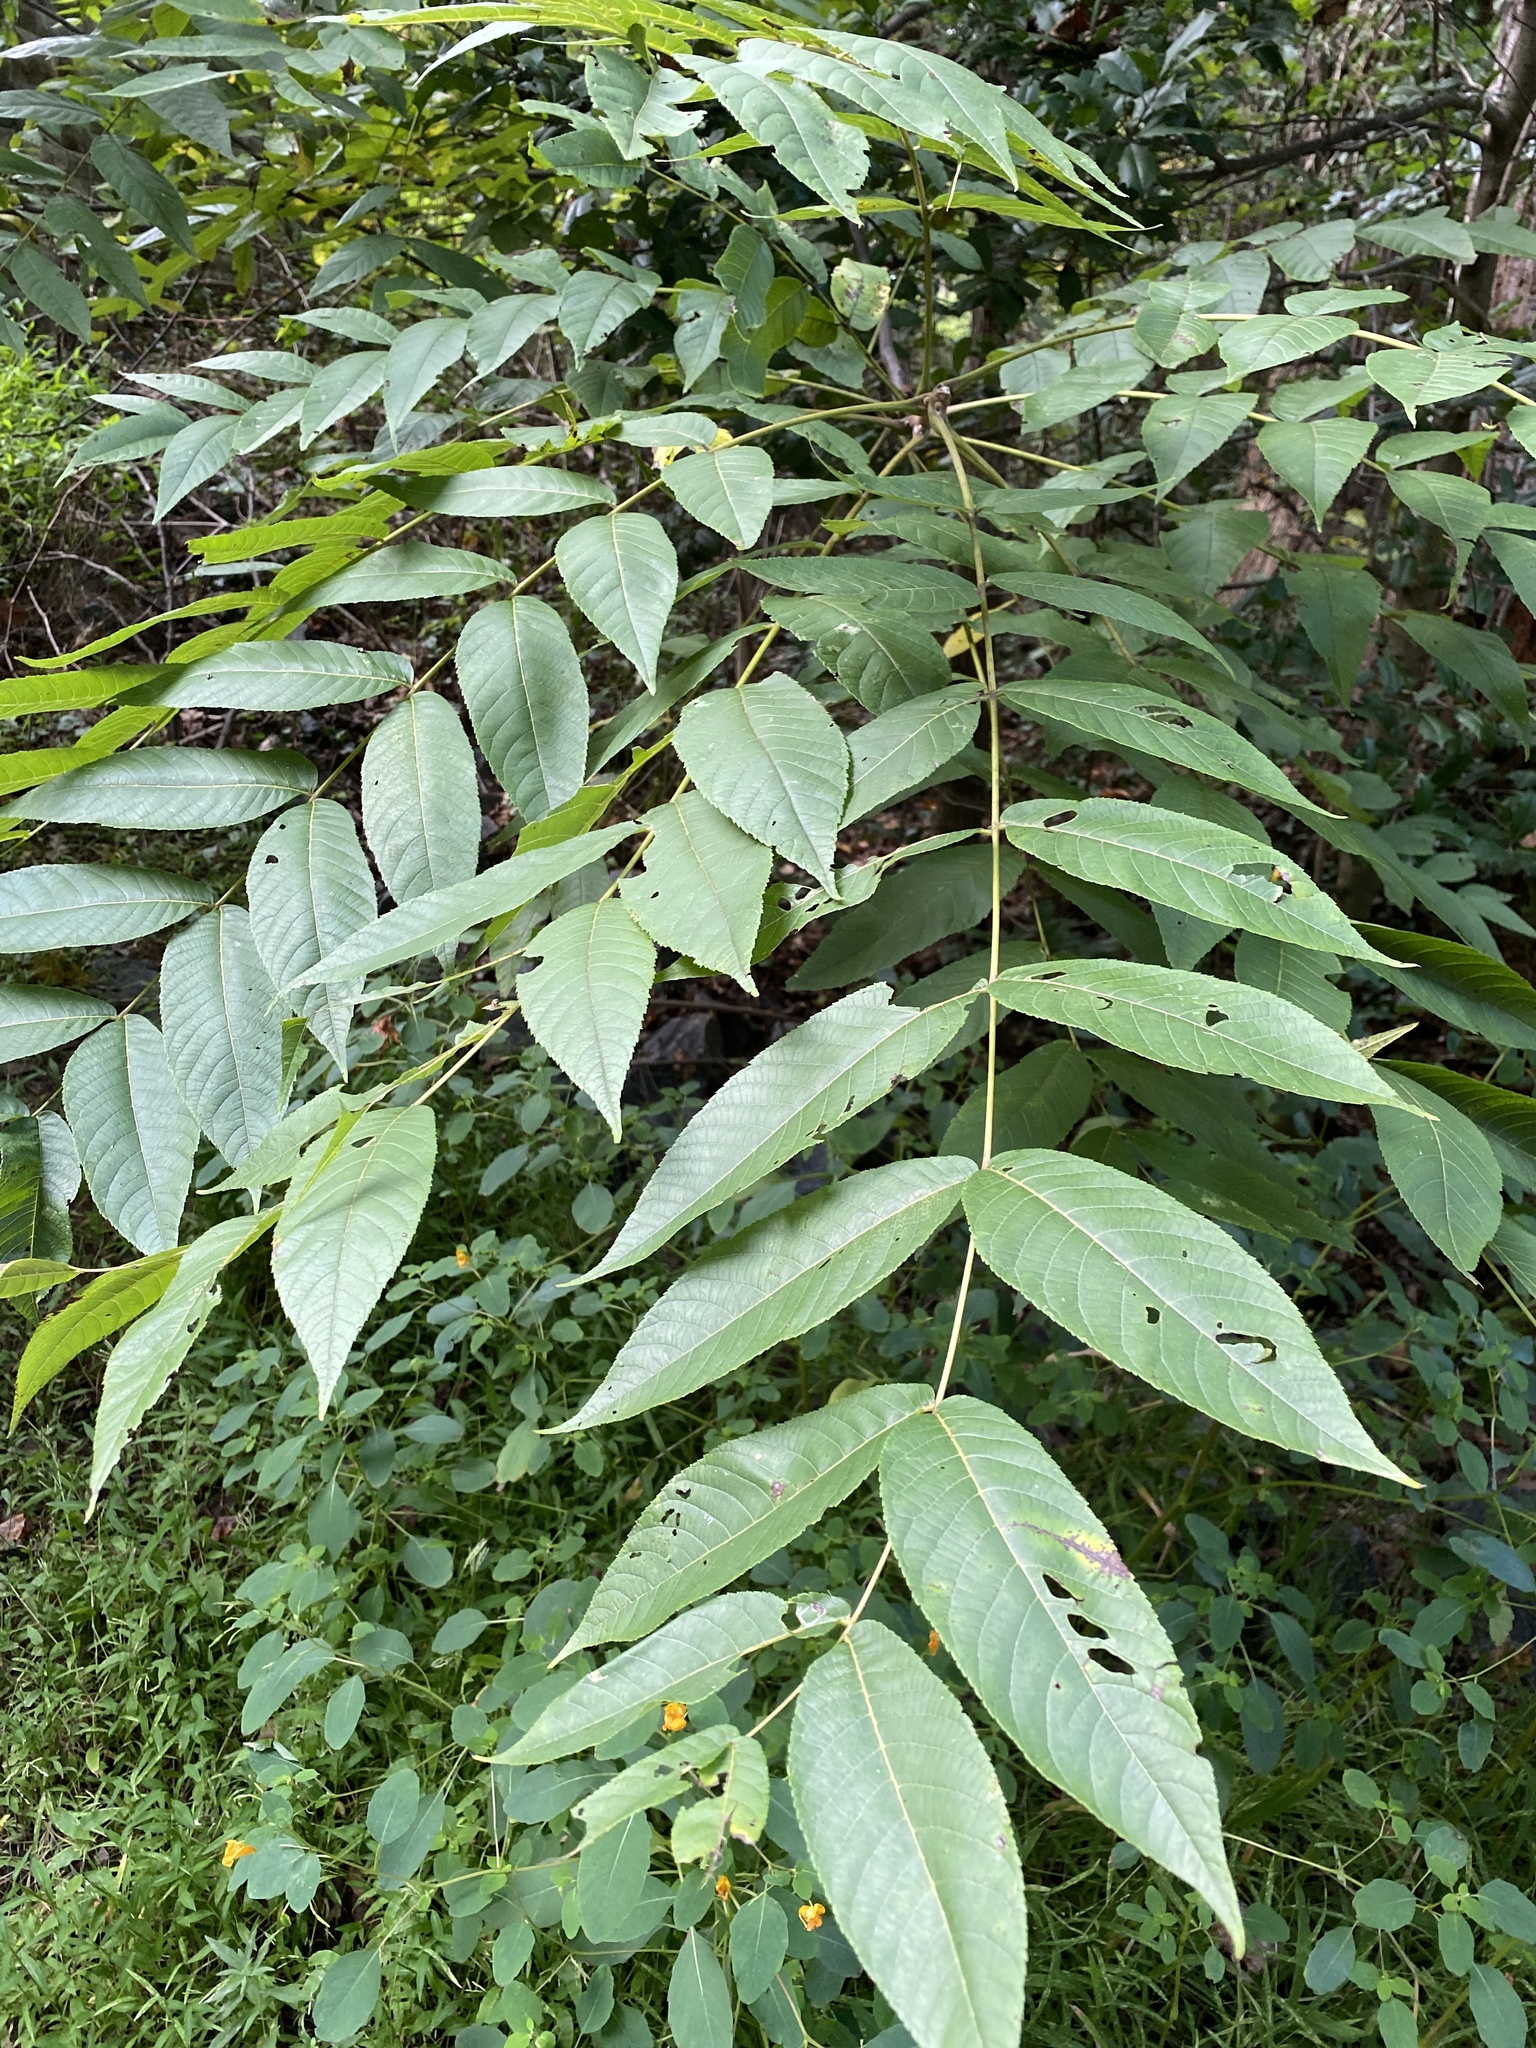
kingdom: Plantae
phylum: Tracheophyta
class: Magnoliopsida
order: Fagales
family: Juglandaceae
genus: Juglans
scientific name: Juglans nigra
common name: Black walnut
